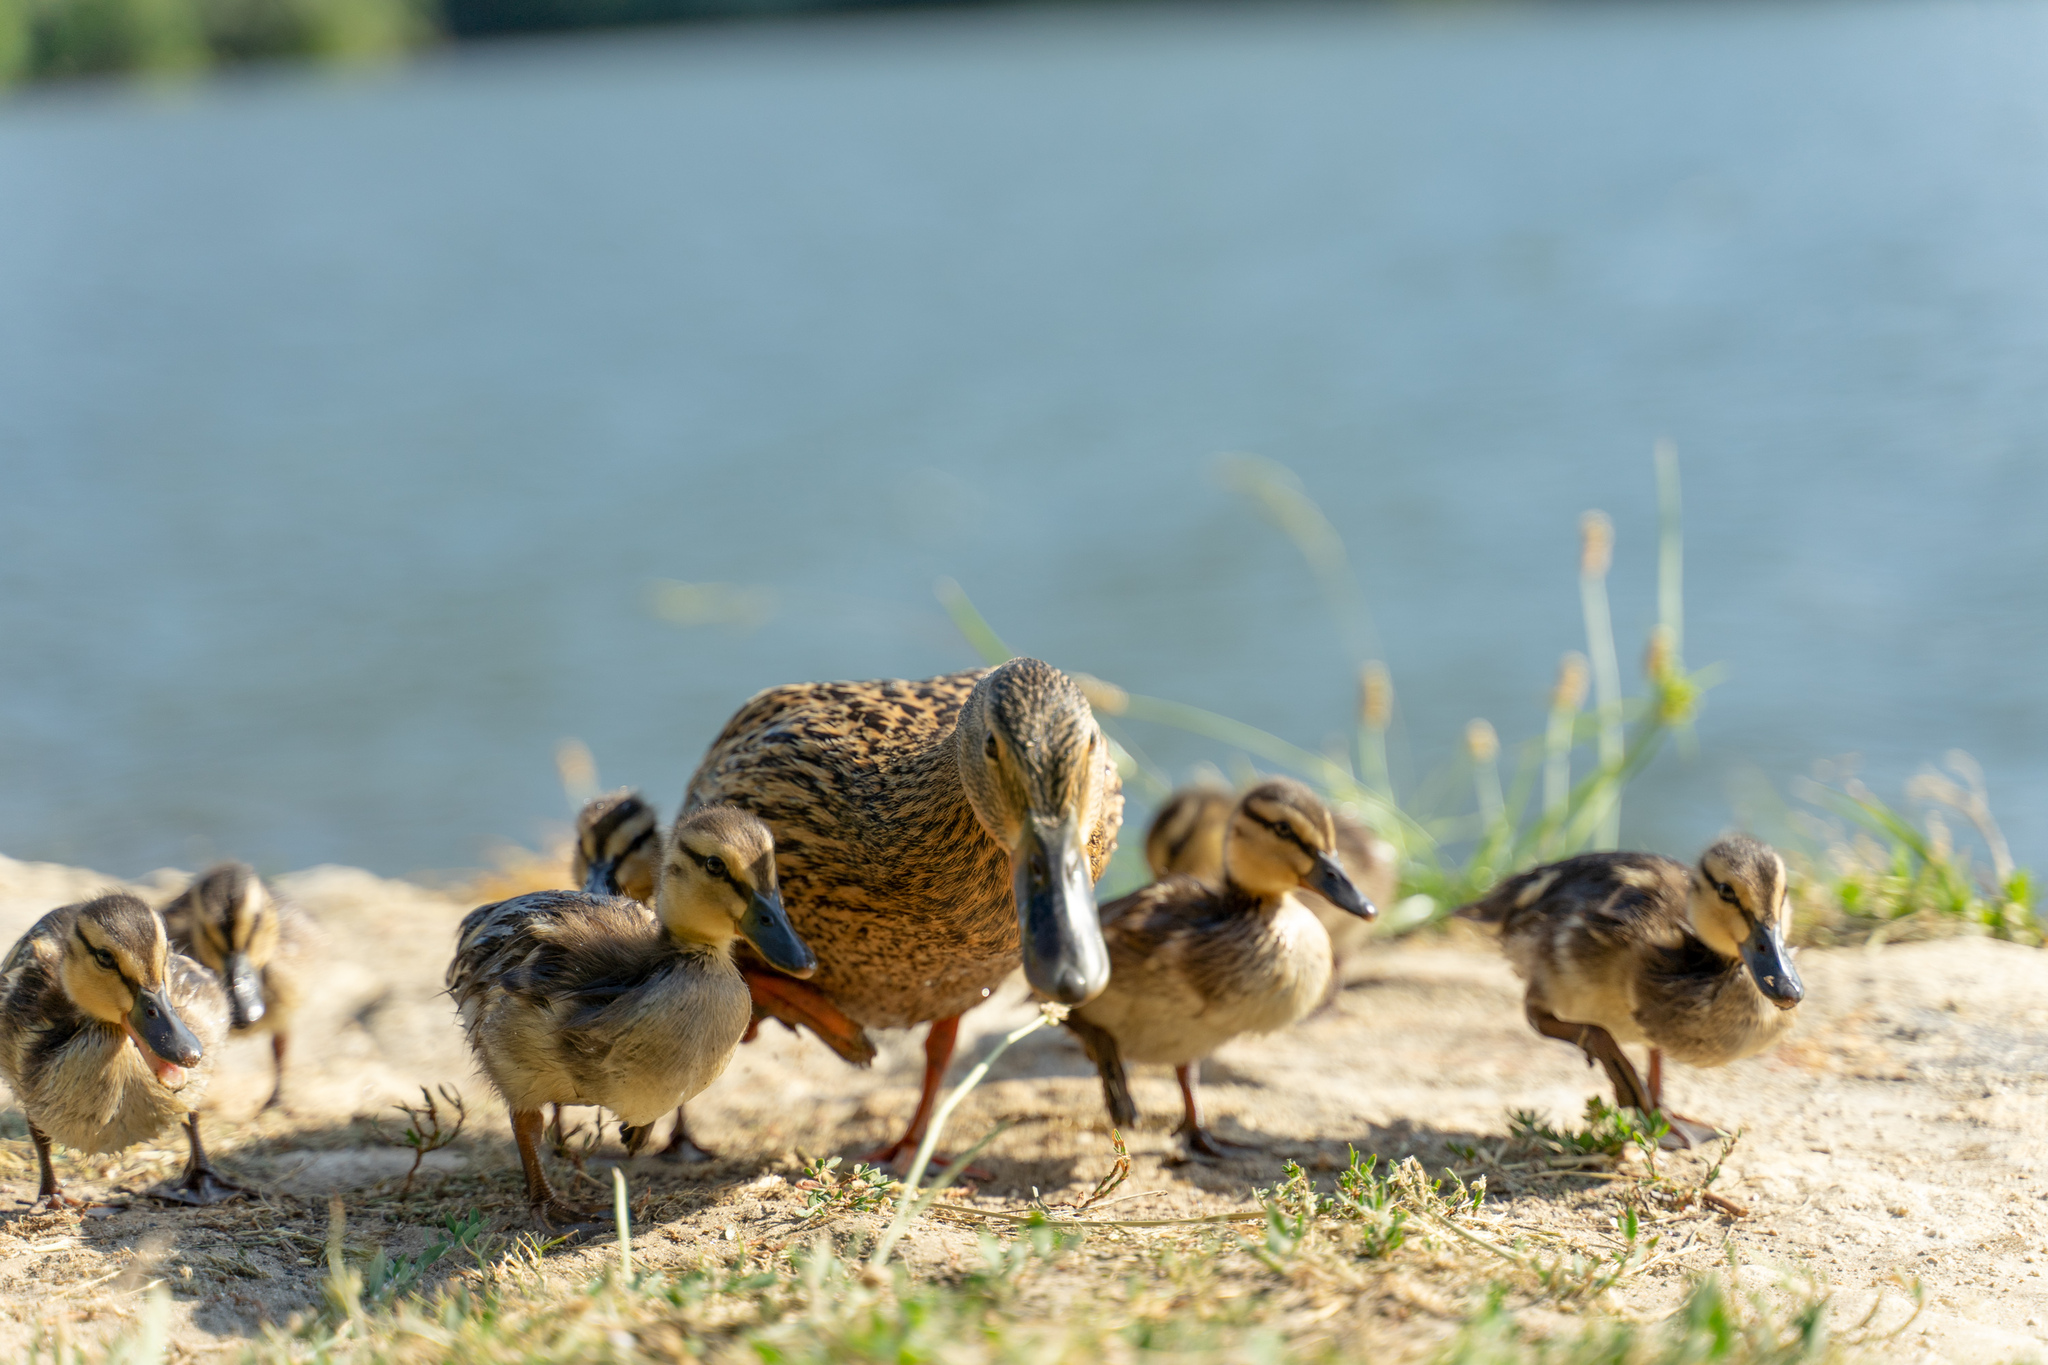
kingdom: Animalia
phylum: Chordata
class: Aves
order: Anseriformes
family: Anatidae
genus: Anas
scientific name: Anas platyrhynchos
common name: Mallard
